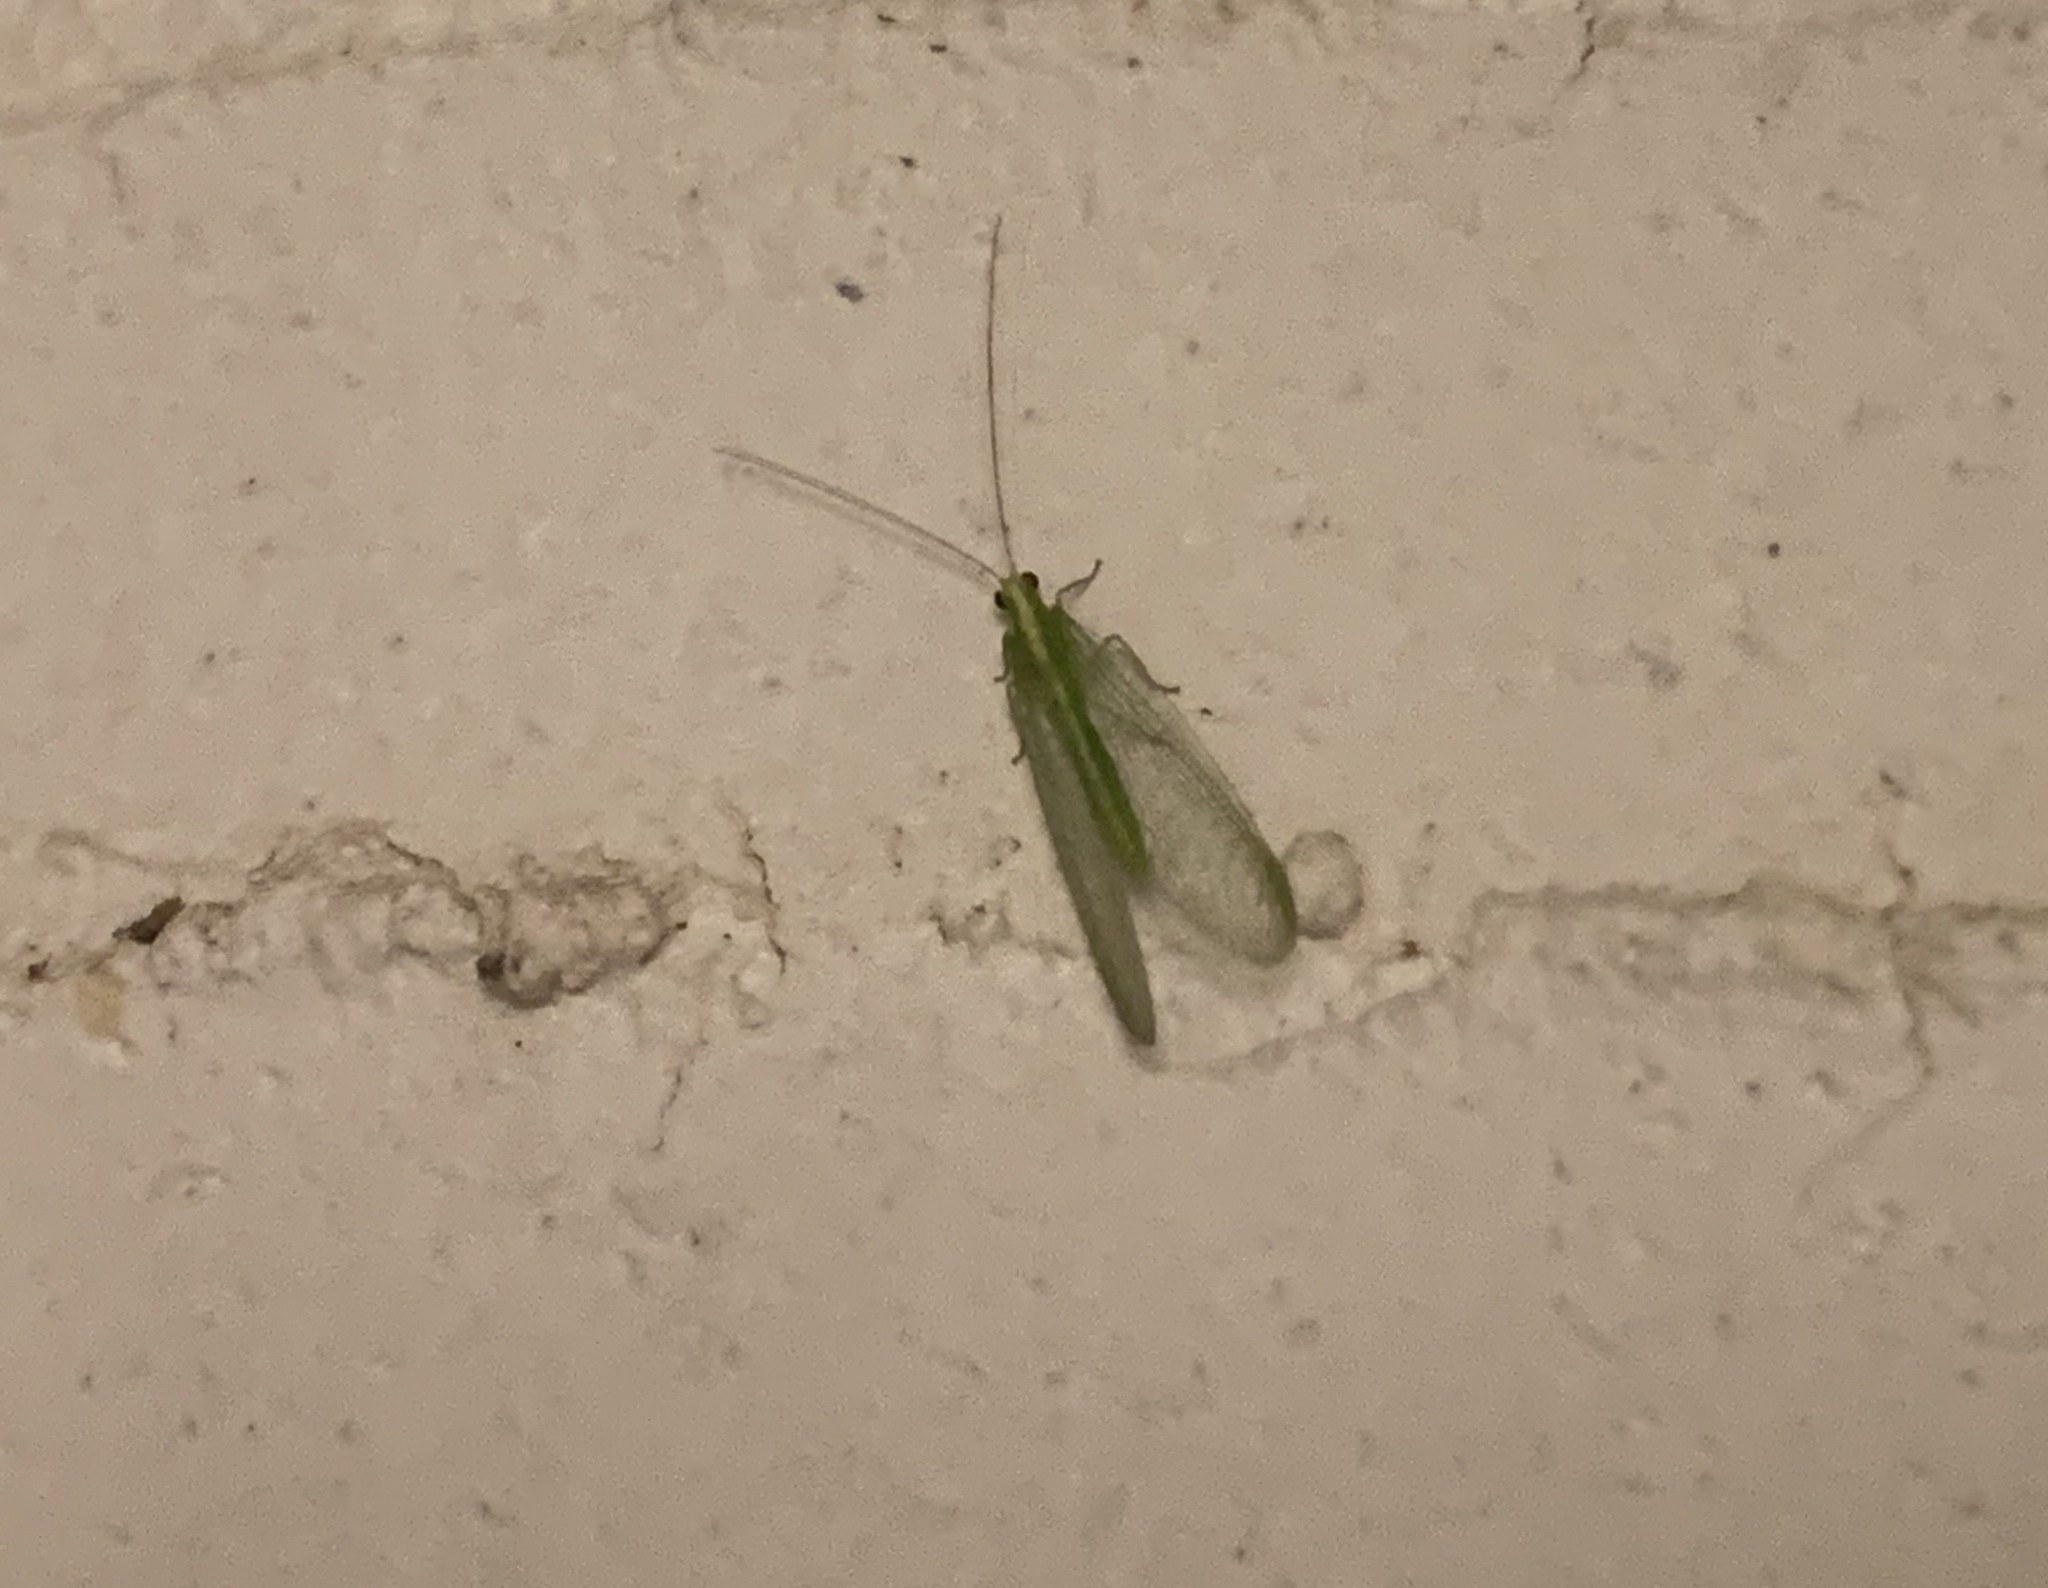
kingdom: Animalia
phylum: Arthropoda
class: Insecta
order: Neuroptera
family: Chrysopidae
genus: Chrysoperla
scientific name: Chrysoperla
